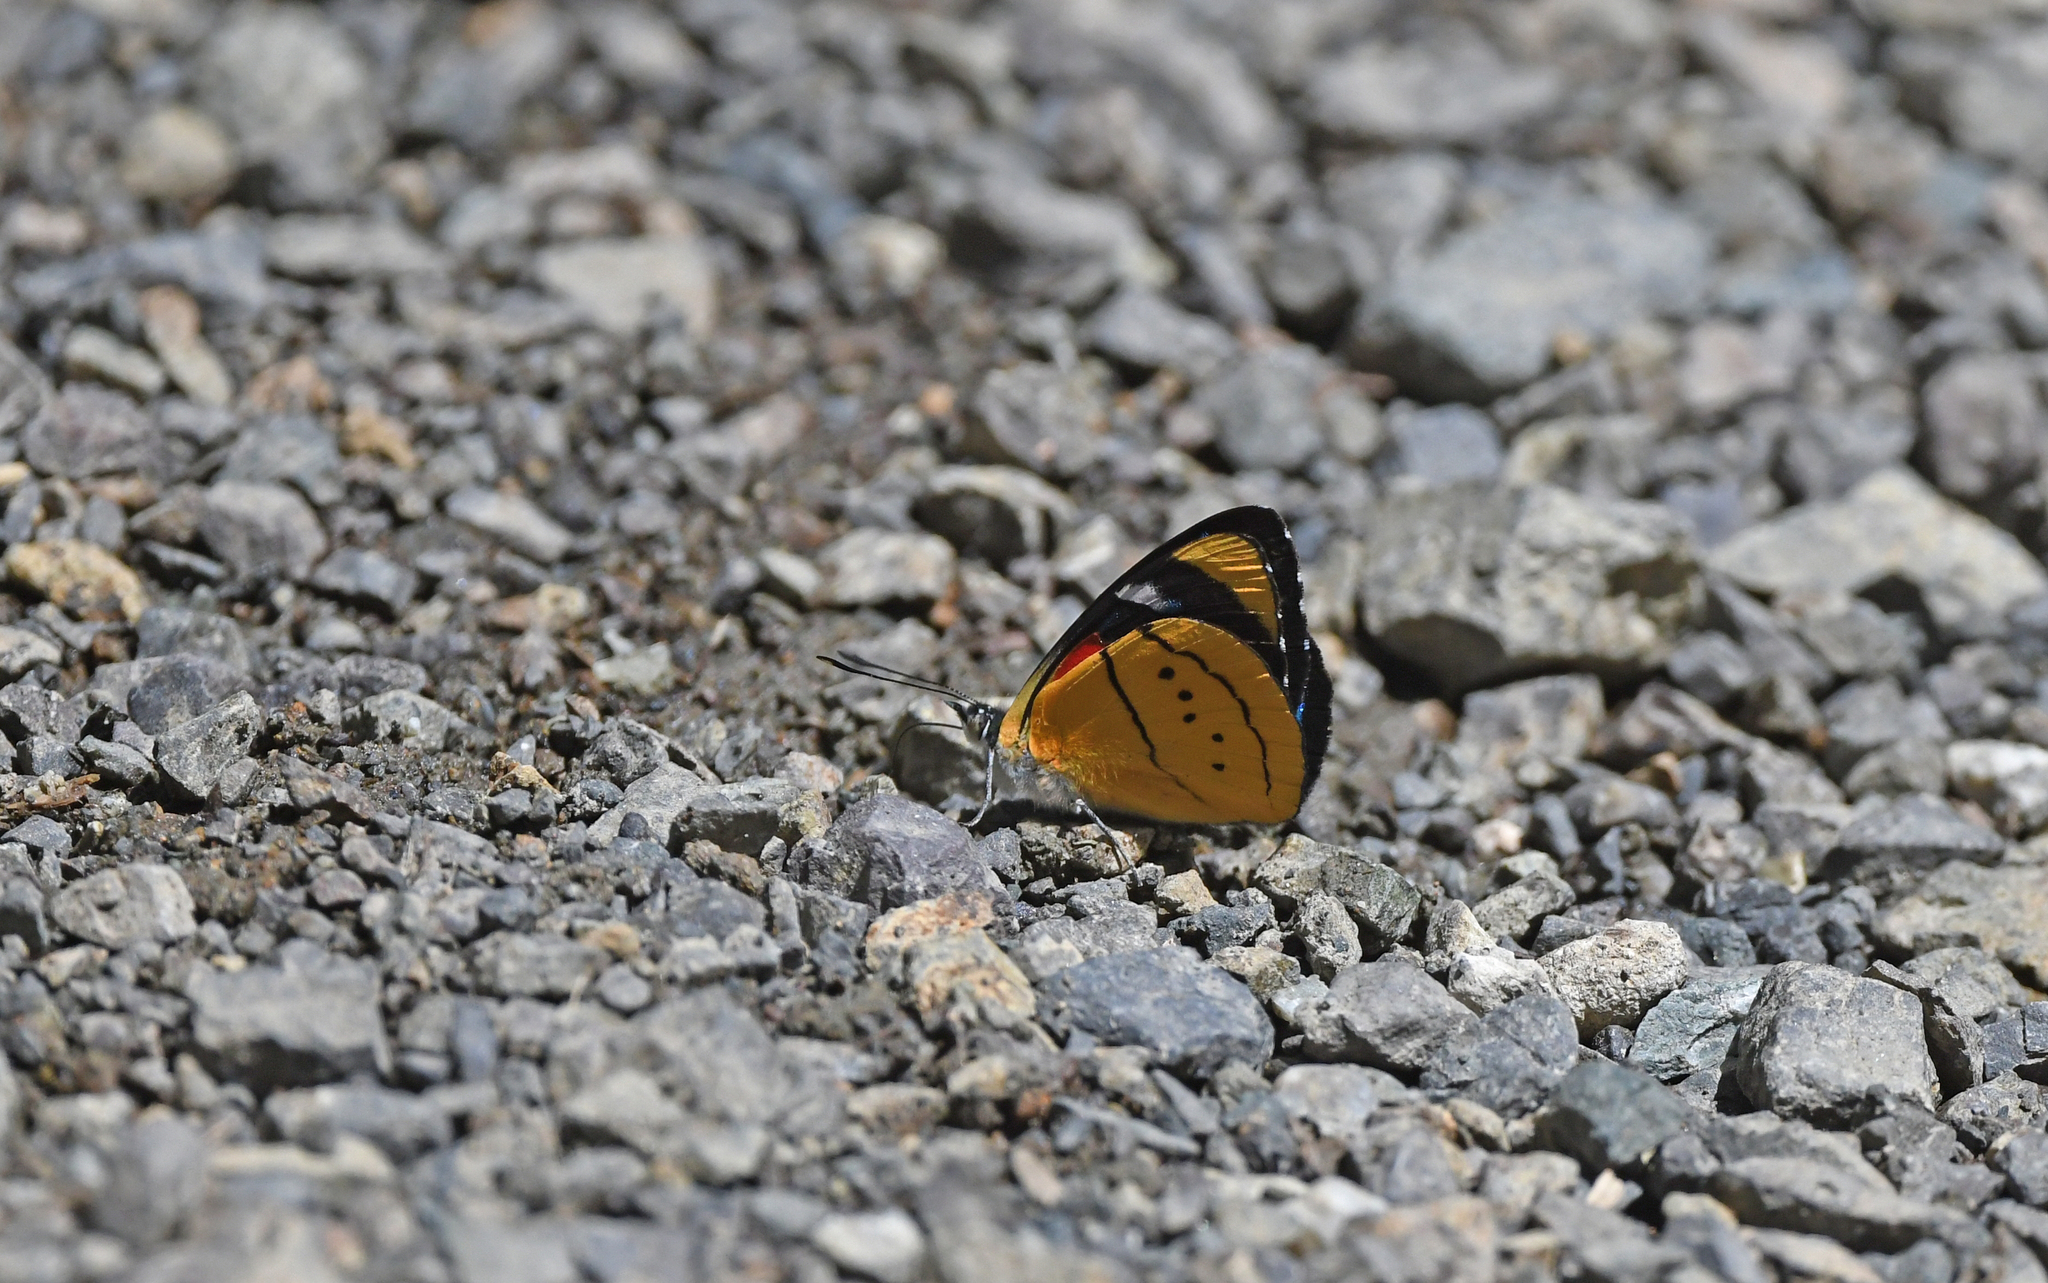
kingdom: Animalia
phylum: Arthropoda
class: Insecta
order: Lepidoptera
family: Nymphalidae
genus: Perisama
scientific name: Perisama humboldtii
